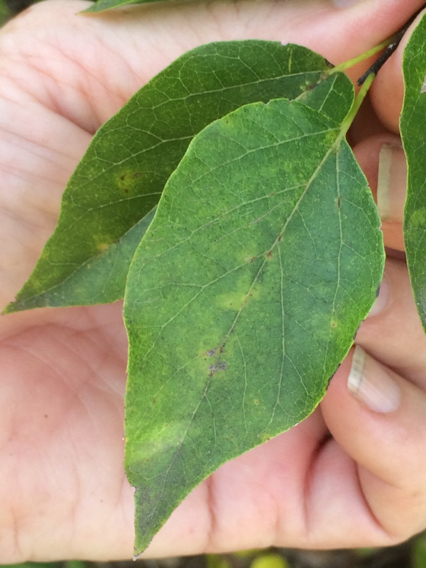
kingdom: Plantae
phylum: Tracheophyta
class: Magnoliopsida
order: Rosales
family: Cannabaceae
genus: Celtis
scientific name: Celtis laevigata
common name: Sugarberry
